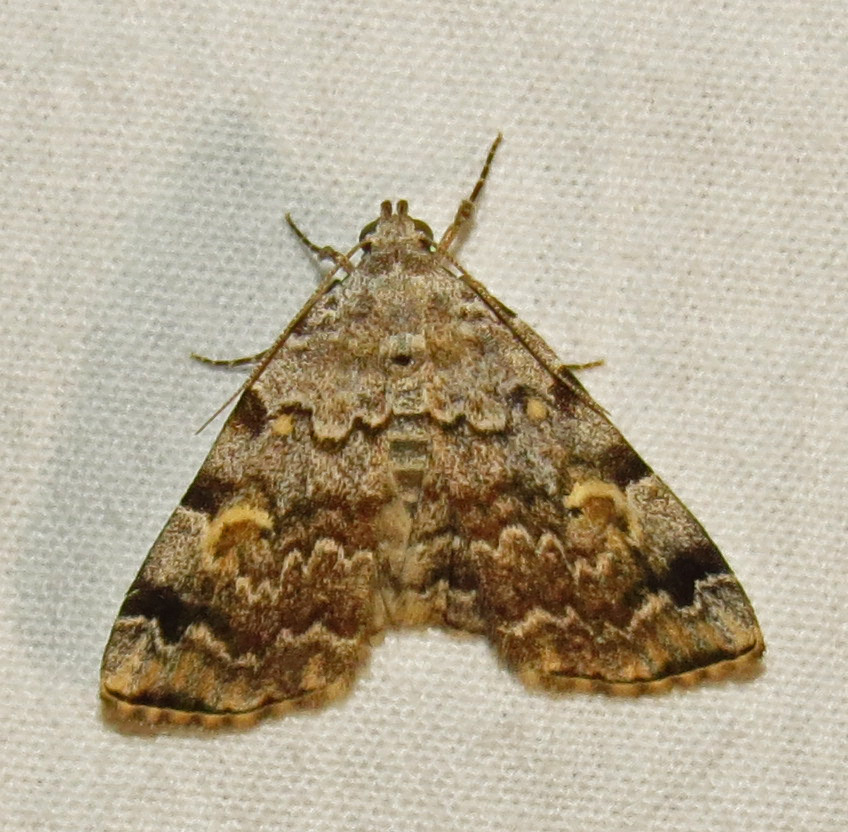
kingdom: Animalia
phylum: Arthropoda
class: Insecta
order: Lepidoptera
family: Erebidae
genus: Idia
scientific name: Idia americalis
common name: American idia moth
